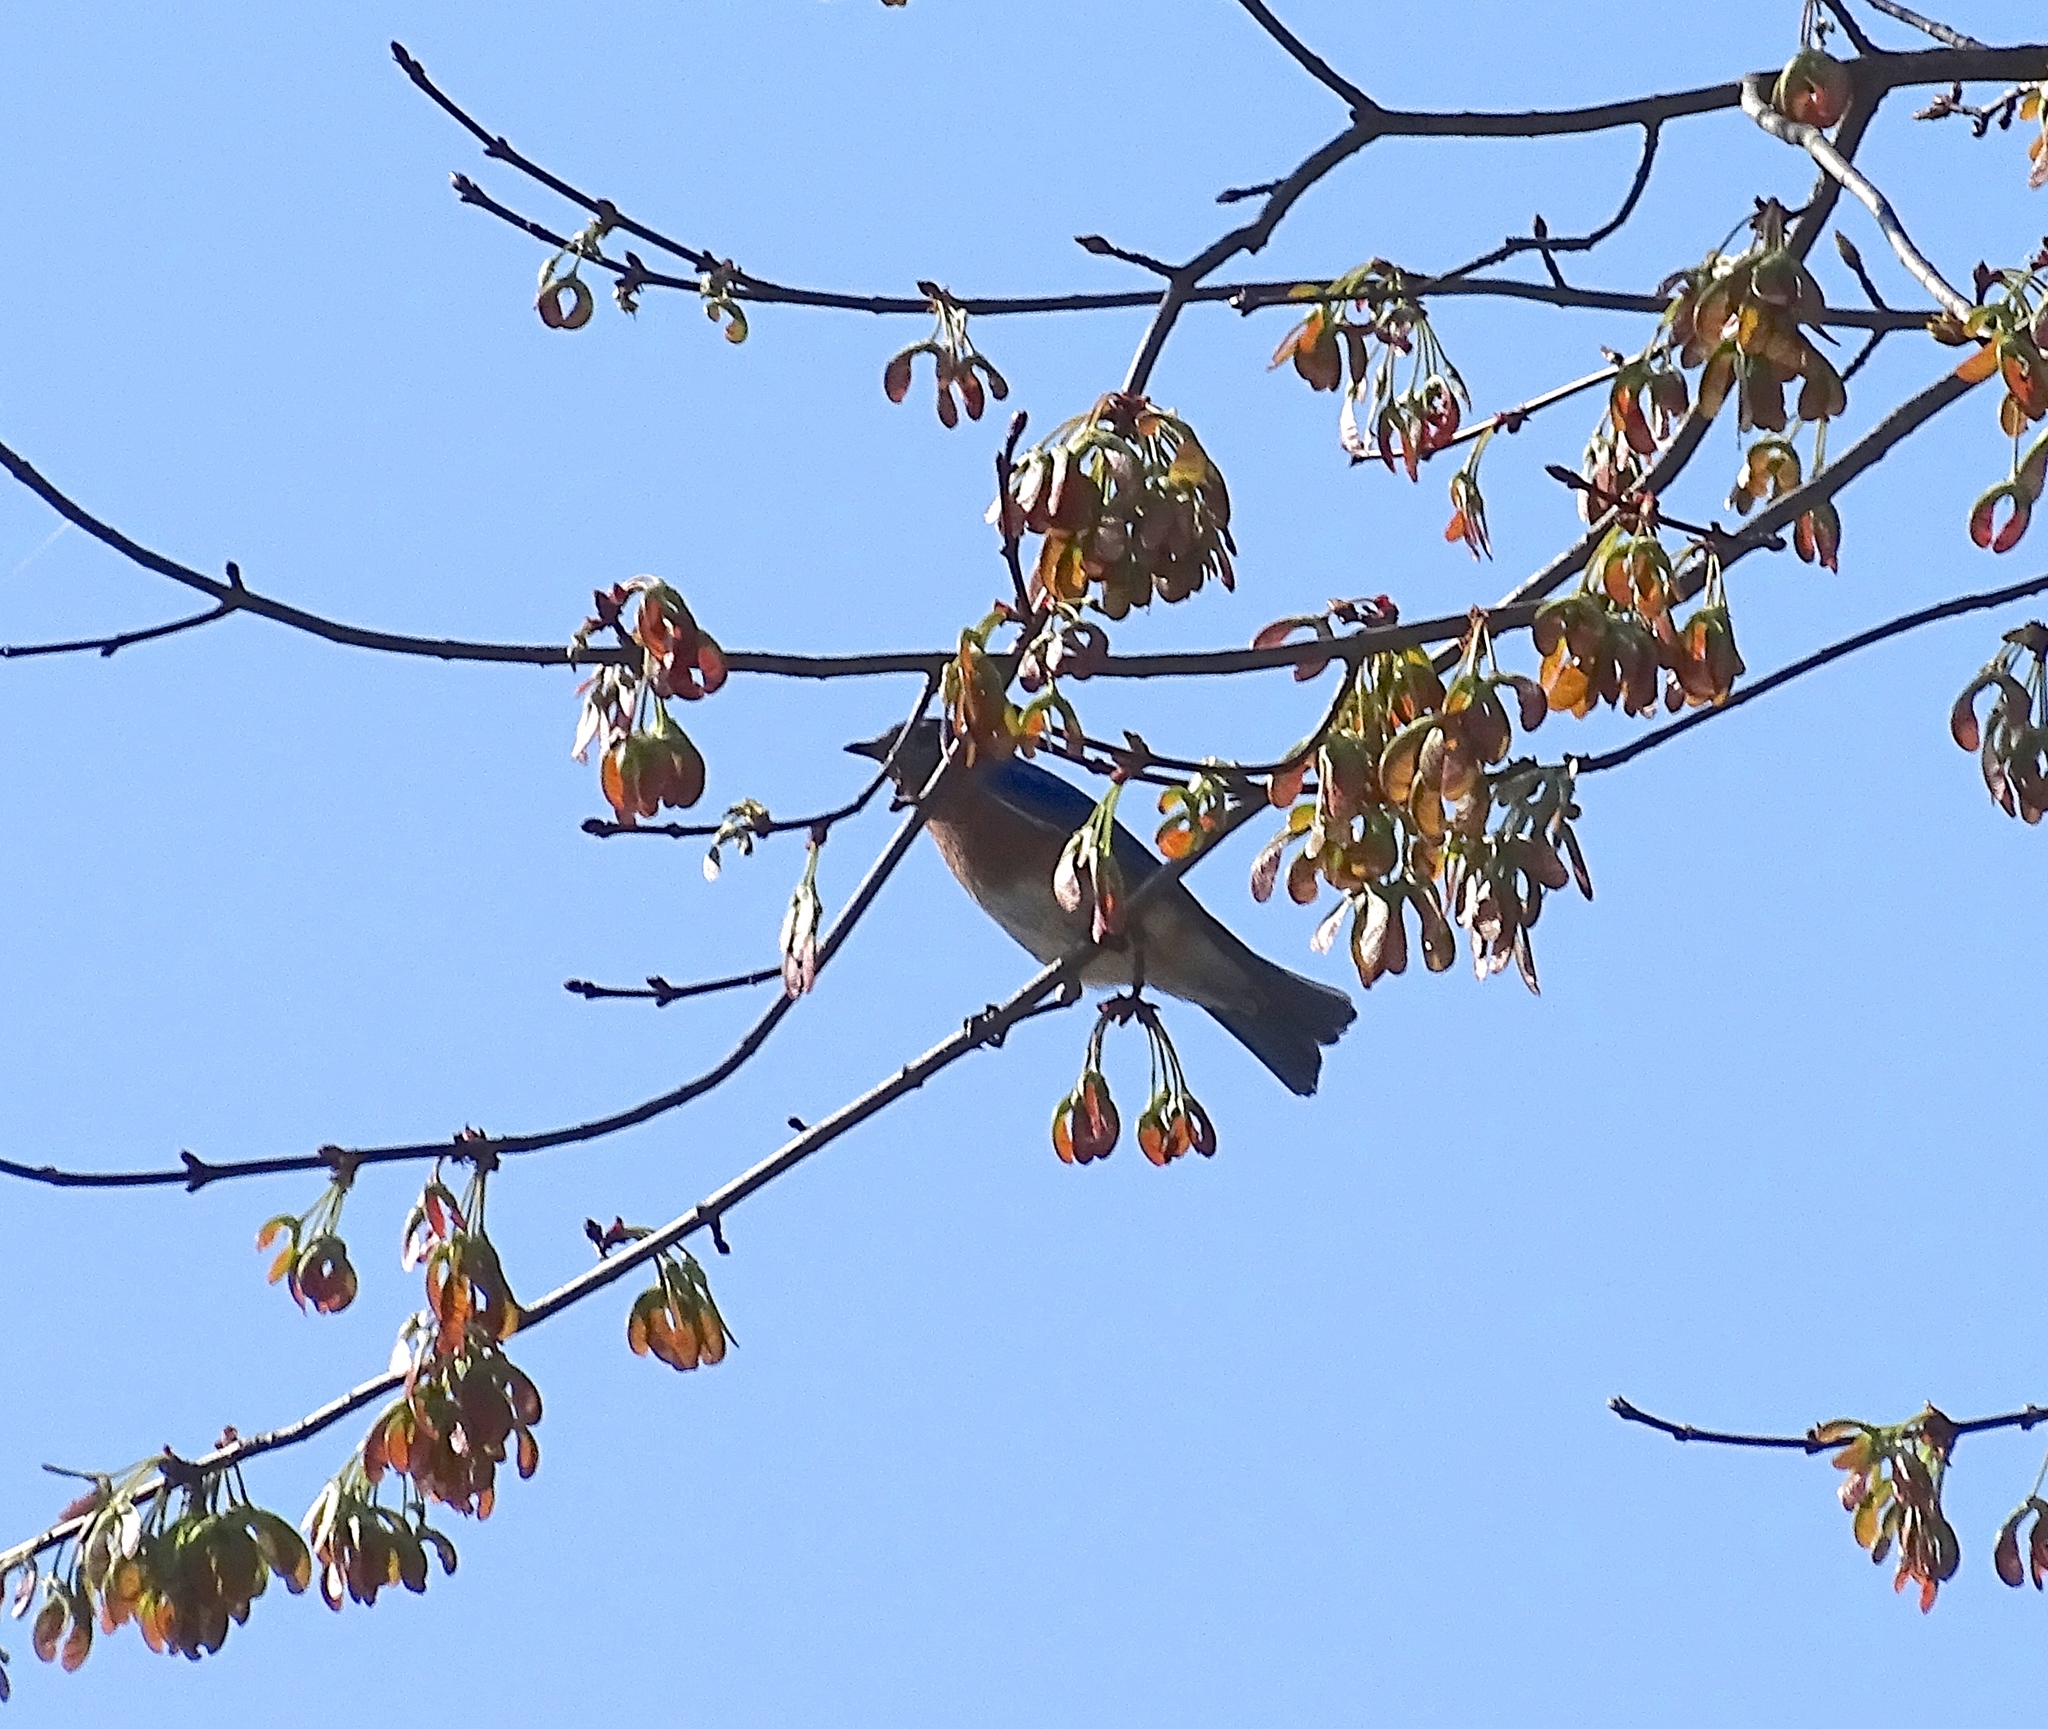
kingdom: Animalia
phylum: Chordata
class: Aves
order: Passeriformes
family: Turdidae
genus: Sialia
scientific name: Sialia sialis
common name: Eastern bluebird
